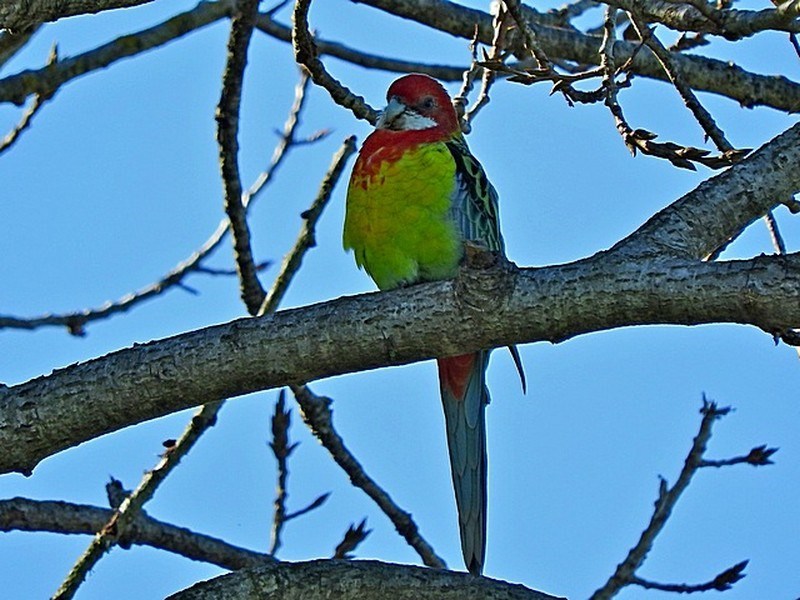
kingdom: Animalia
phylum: Chordata
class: Aves
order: Psittaciformes
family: Psittacidae
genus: Platycercus
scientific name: Platycercus eximius
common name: Eastern rosella
